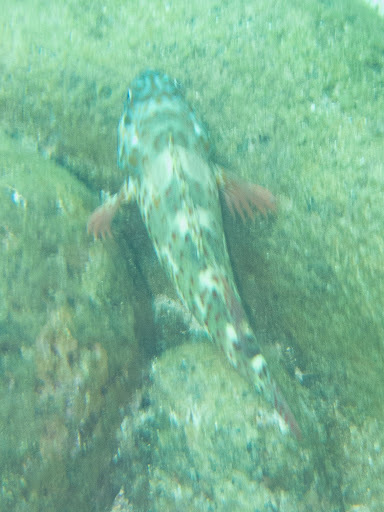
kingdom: Animalia
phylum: Chordata
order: Perciformes
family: Cirrhitidae
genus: Cirrhitus
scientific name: Cirrhitus pinnulatus
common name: Stocky hawkfish
